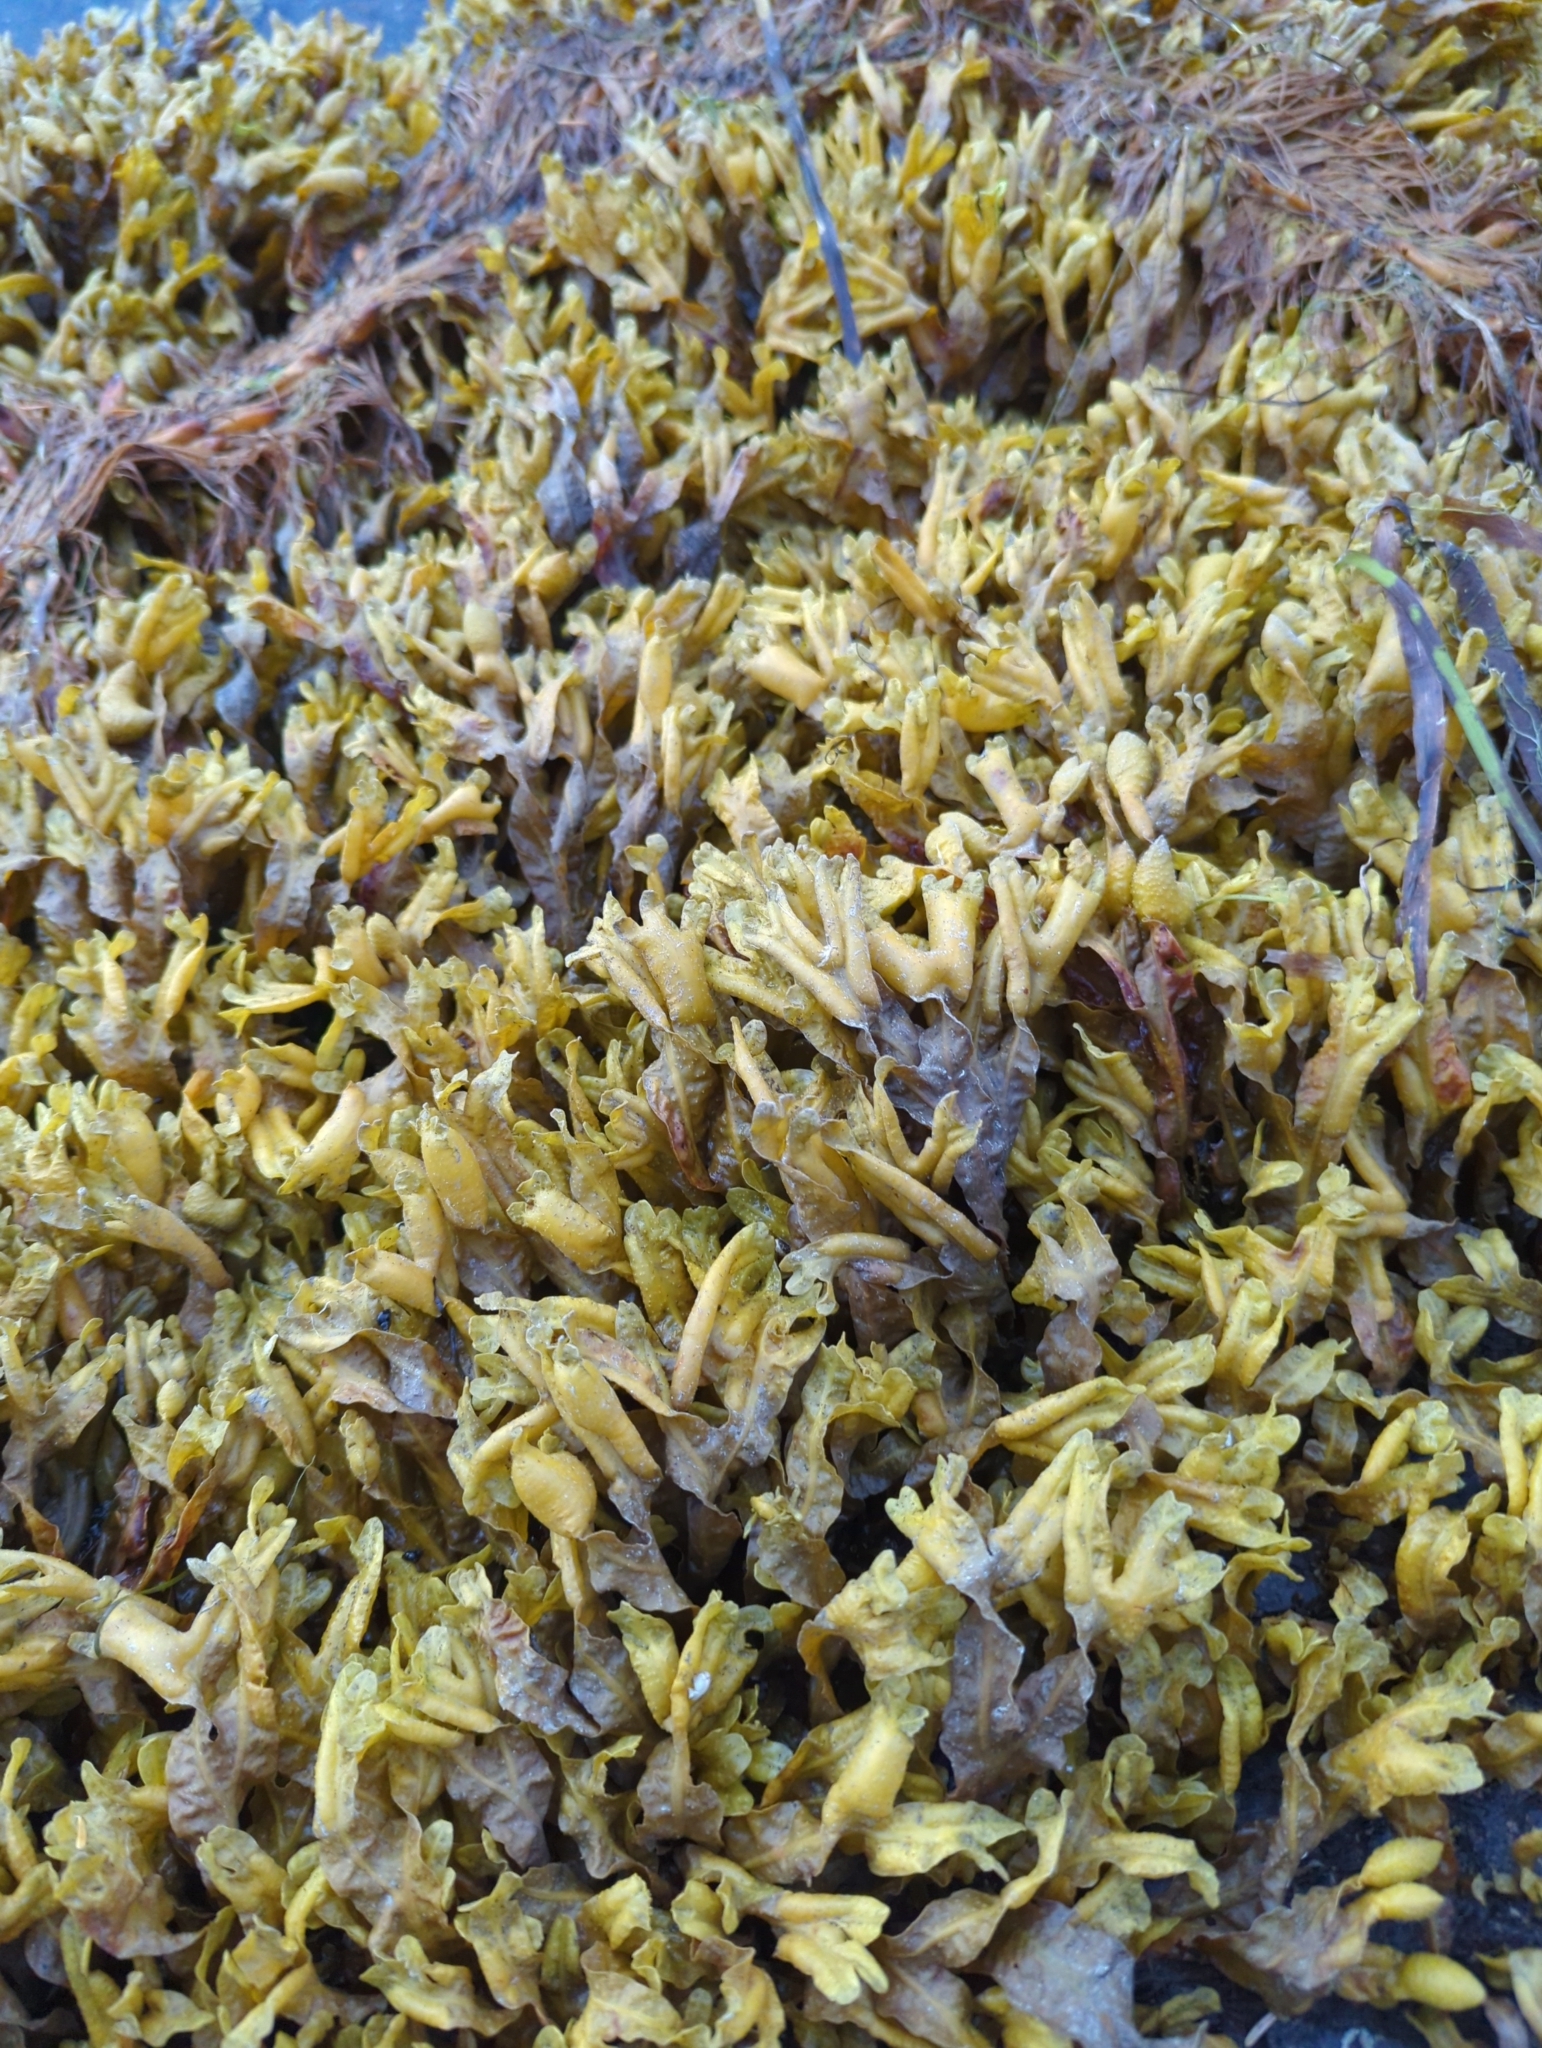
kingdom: Chromista
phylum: Ochrophyta
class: Phaeophyceae
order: Fucales
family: Fucaceae
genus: Fucus
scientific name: Fucus distichus
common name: Rockweed
